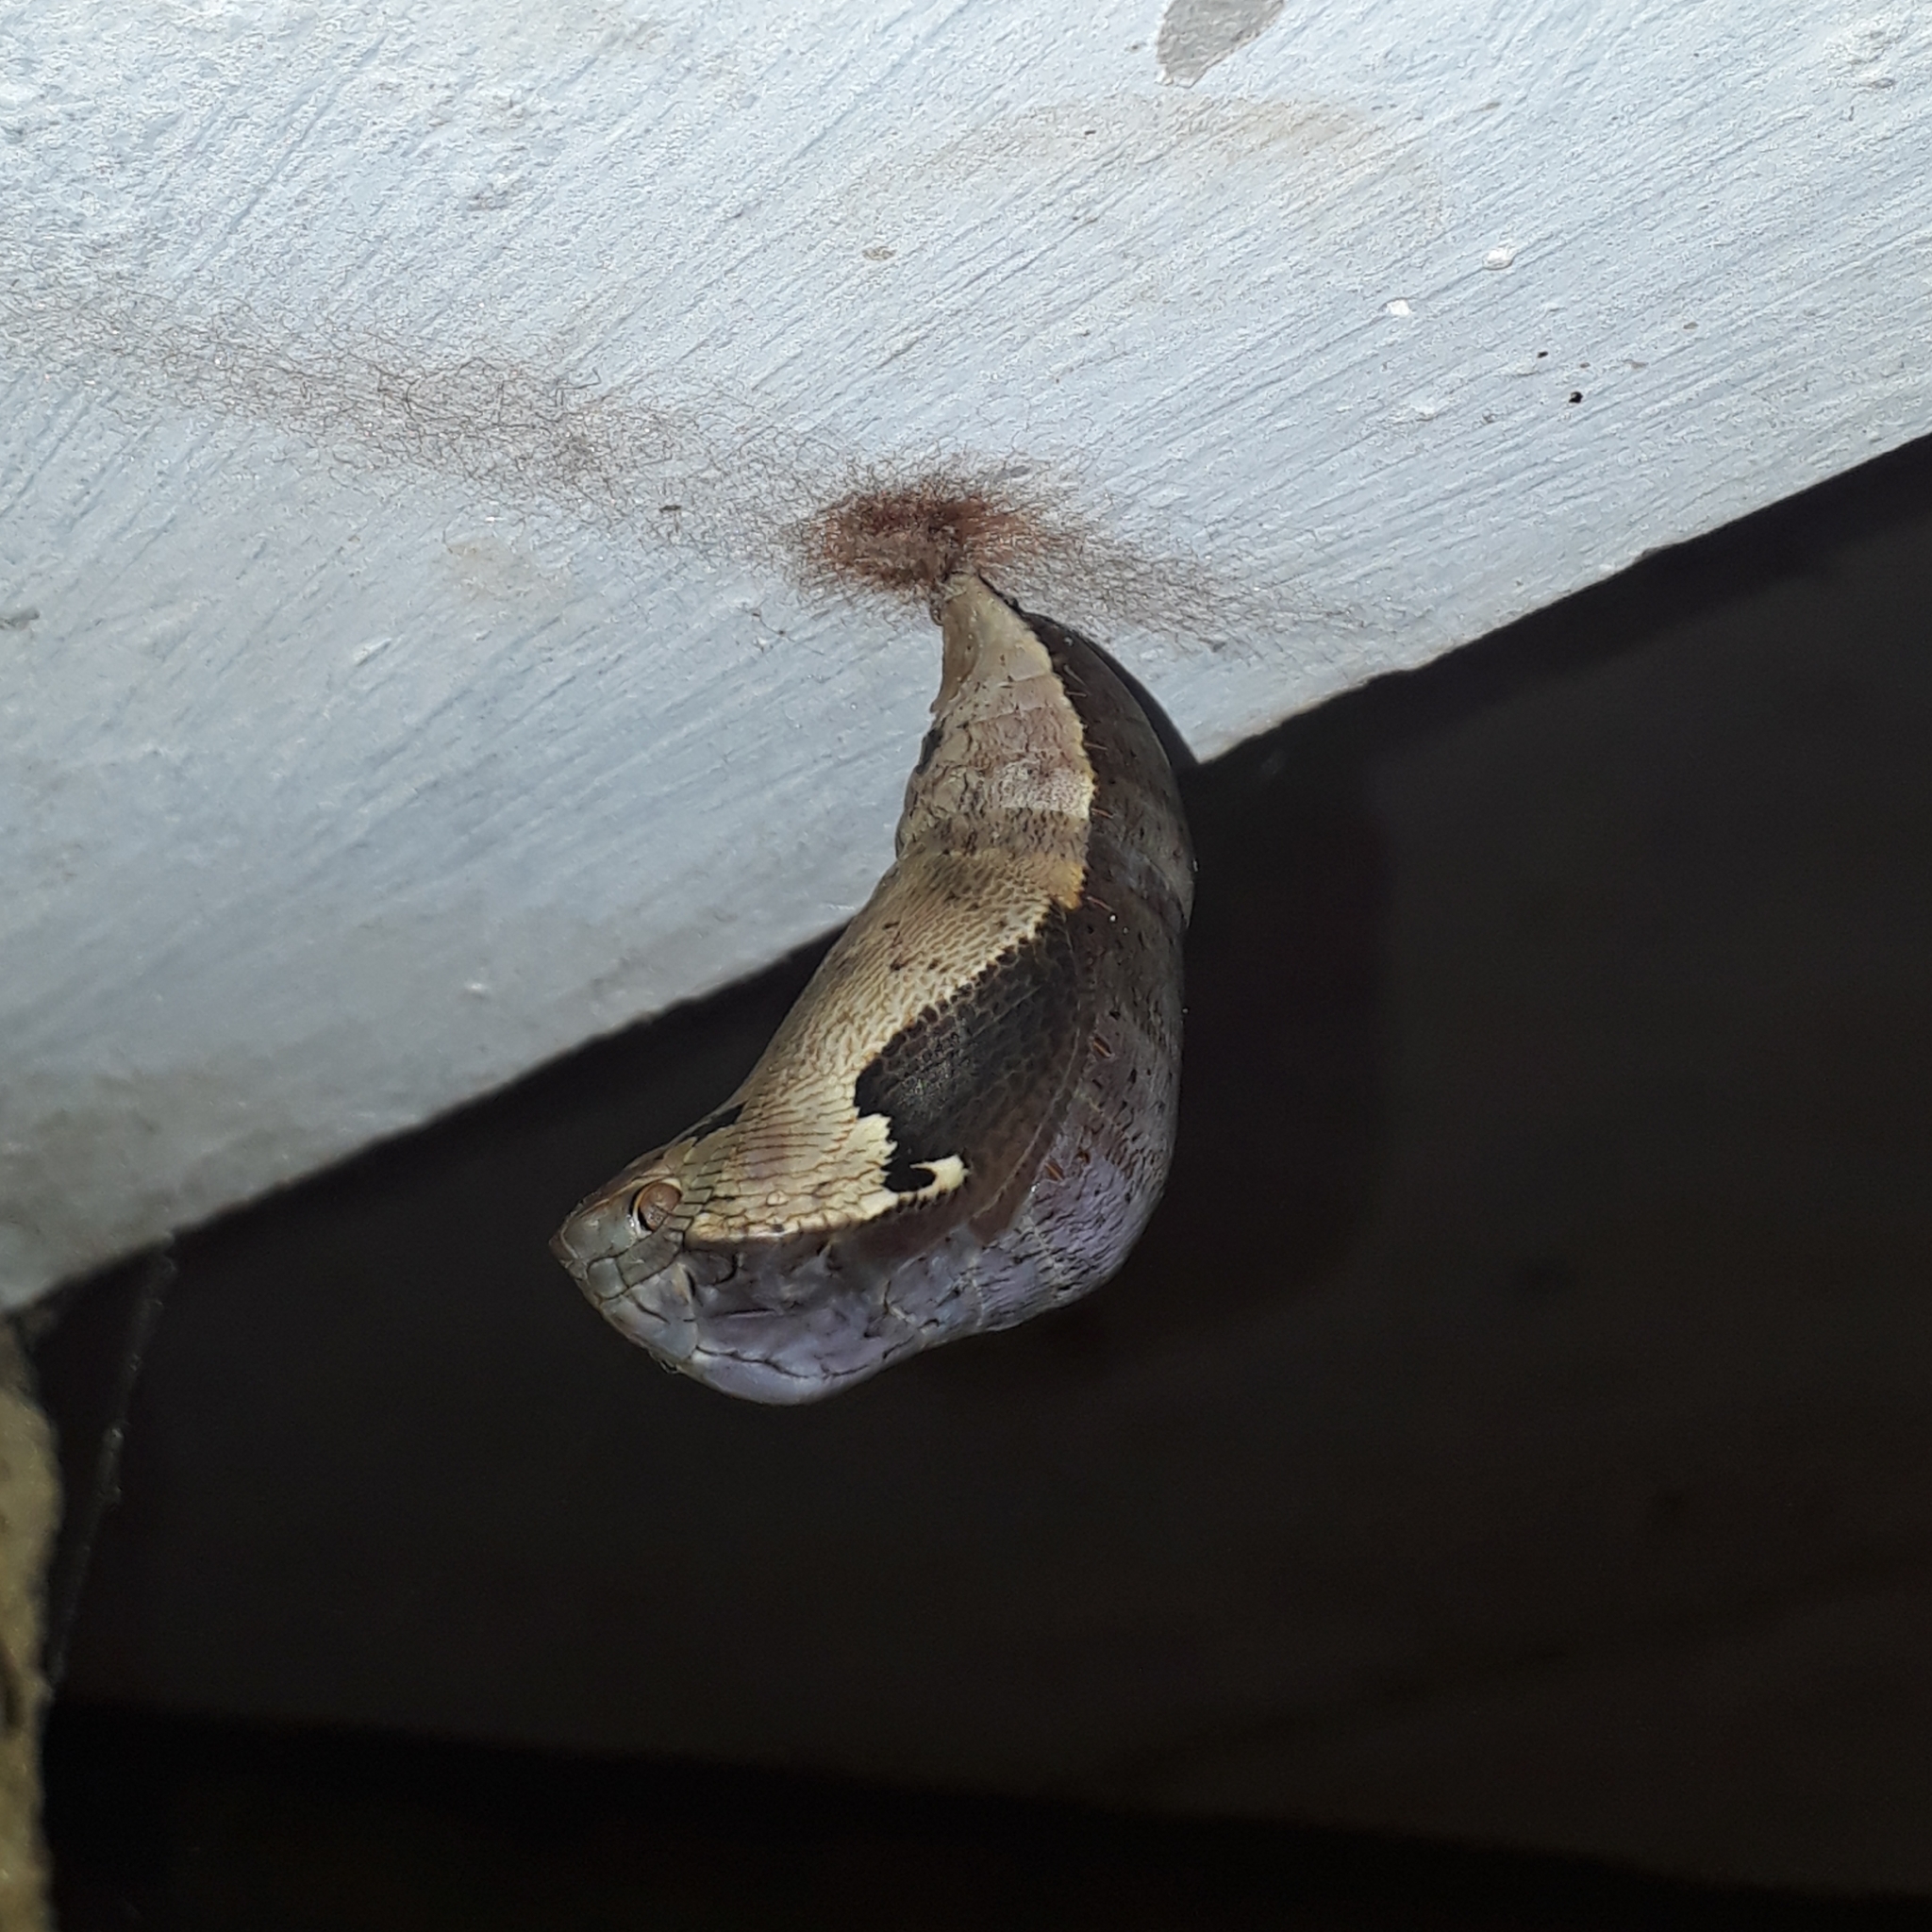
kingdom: Animalia
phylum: Arthropoda
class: Insecta
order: Lepidoptera
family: Nymphalidae
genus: Dynastor
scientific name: Dynastor darius
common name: Daring owl-butterfly
